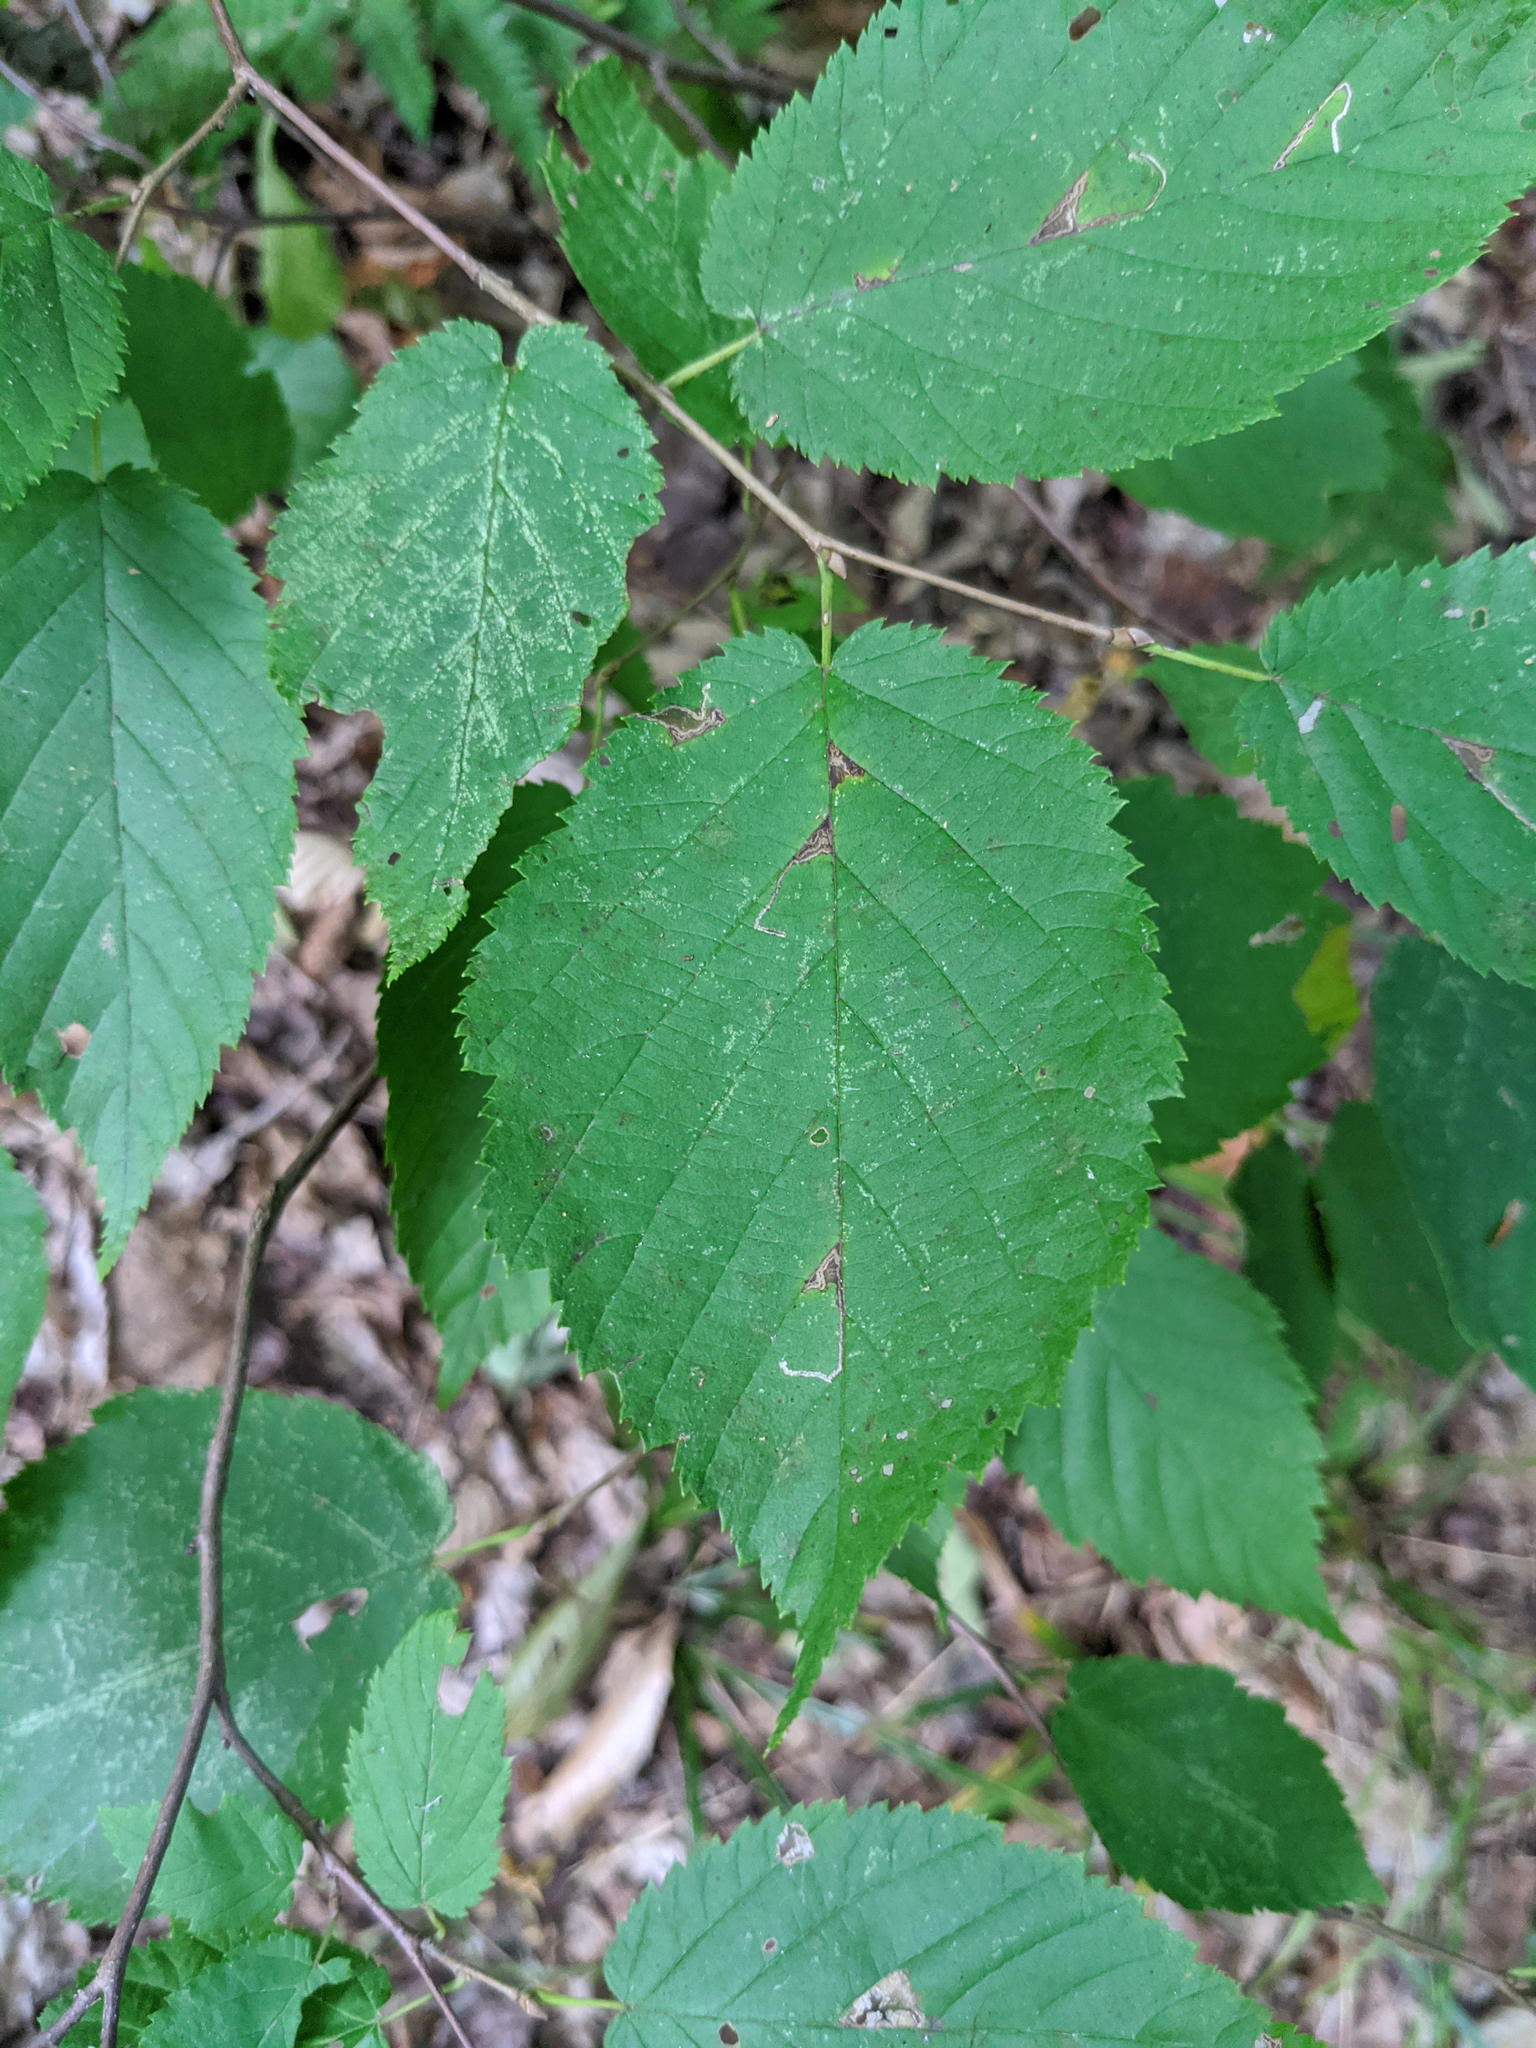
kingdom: Plantae
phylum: Tracheophyta
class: Magnoliopsida
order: Fagales
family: Betulaceae
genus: Corylus
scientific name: Corylus cornuta
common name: Beaked hazel
